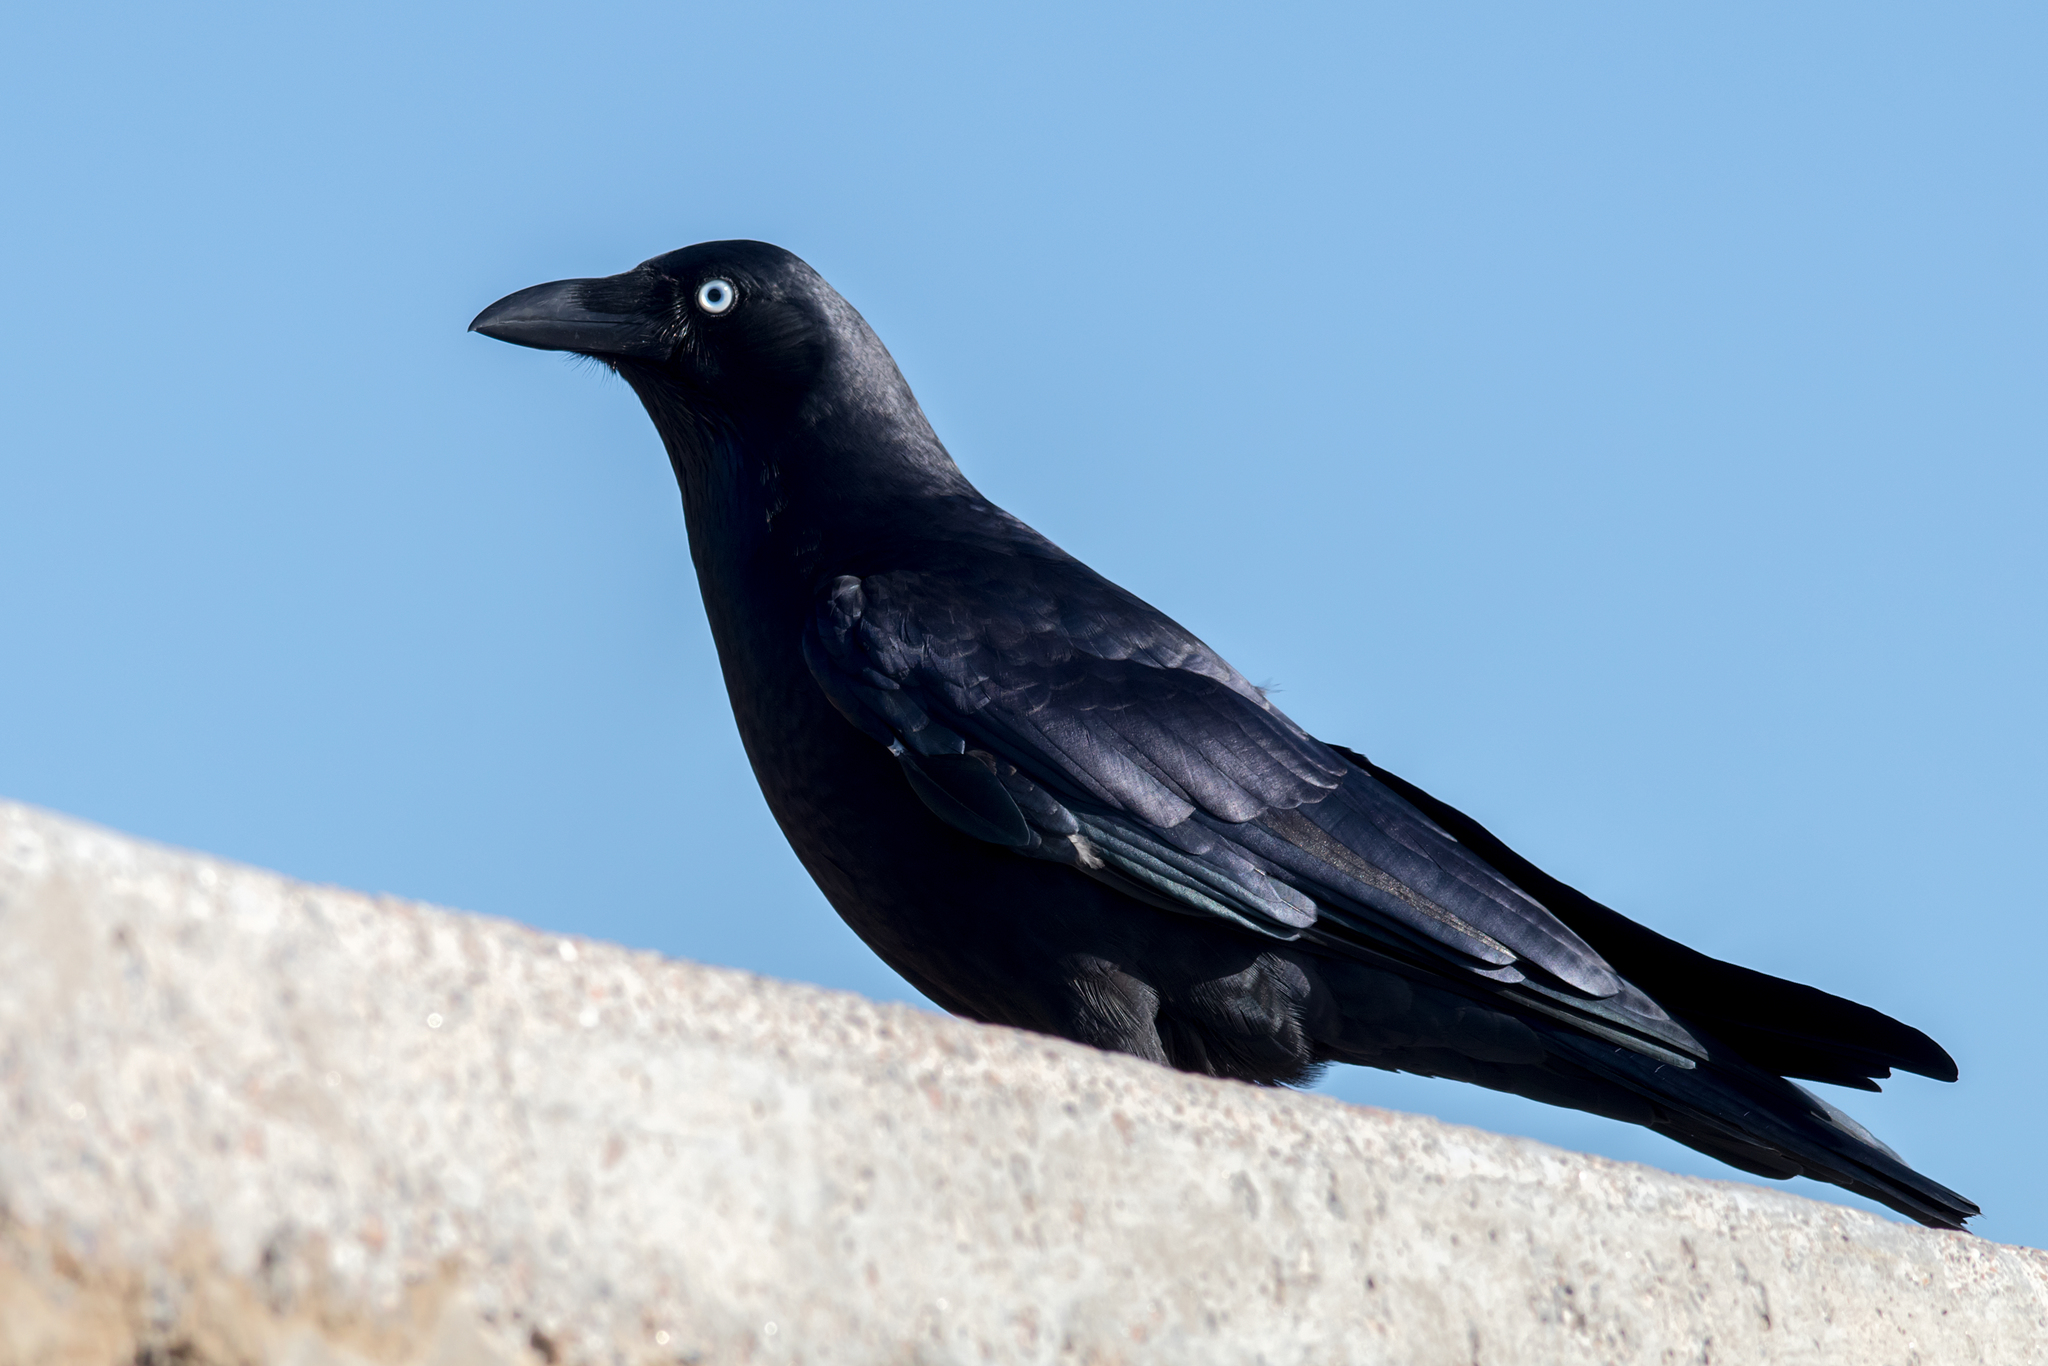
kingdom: Animalia
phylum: Chordata
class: Aves
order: Passeriformes
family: Corvidae
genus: Corvus
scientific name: Corvus orru
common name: Torresian crow
